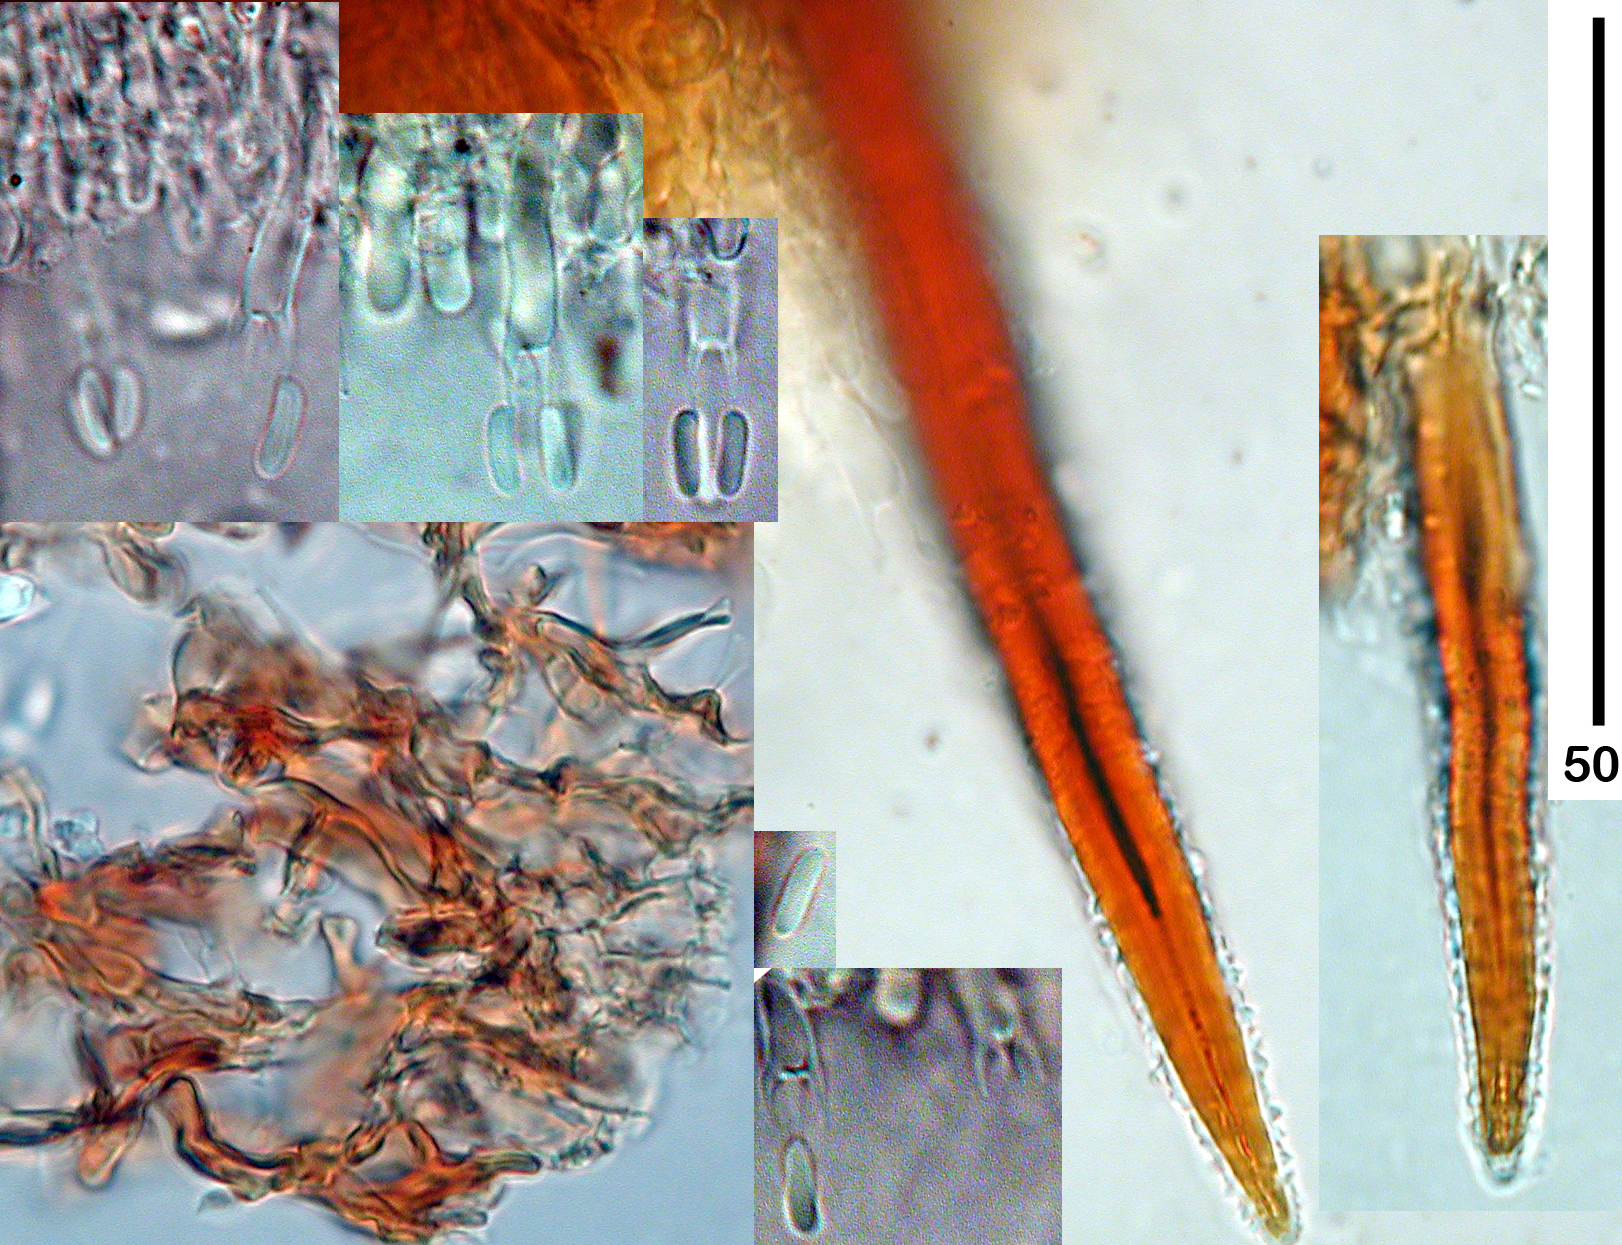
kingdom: Fungi
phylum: Basidiomycota
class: Agaricomycetes
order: Hymenochaetales
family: Hymenochaetaceae
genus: Hymenochaete
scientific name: Hymenochaete plurimaesetae
